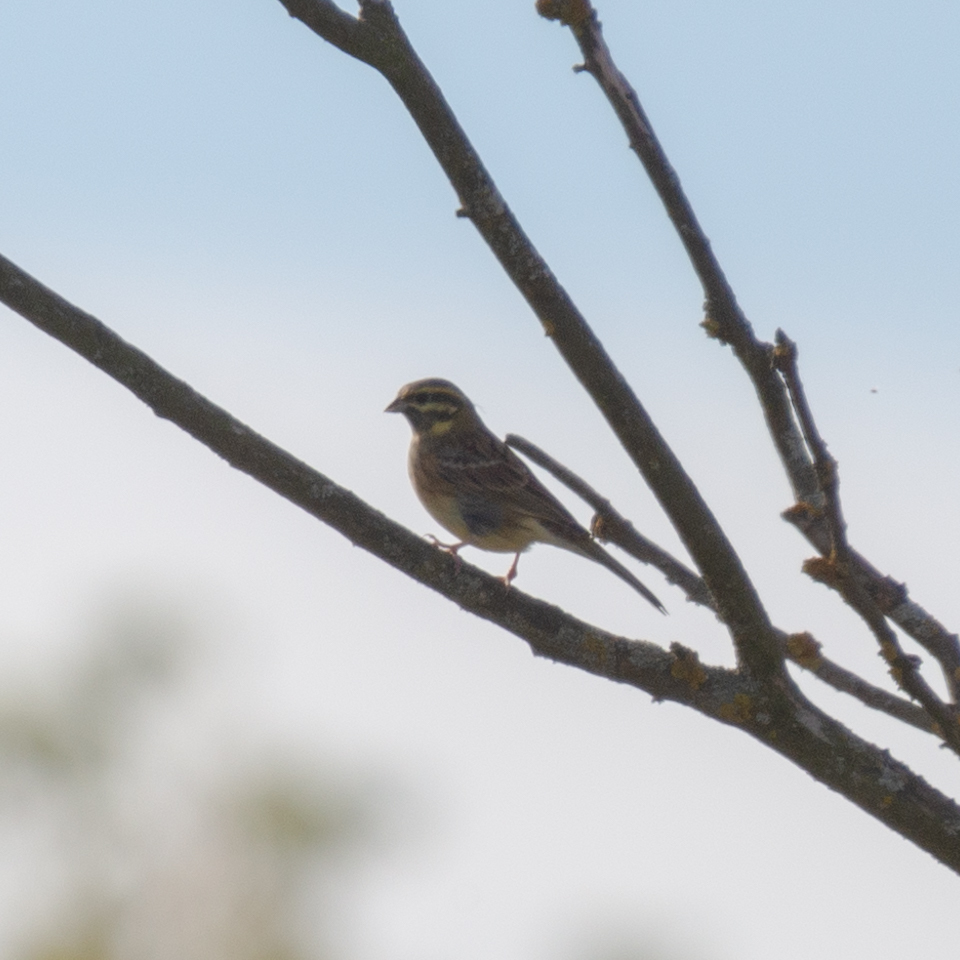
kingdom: Animalia
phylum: Chordata
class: Aves
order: Passeriformes
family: Emberizidae
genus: Emberiza
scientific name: Emberiza cirlus
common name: Cirl bunting
